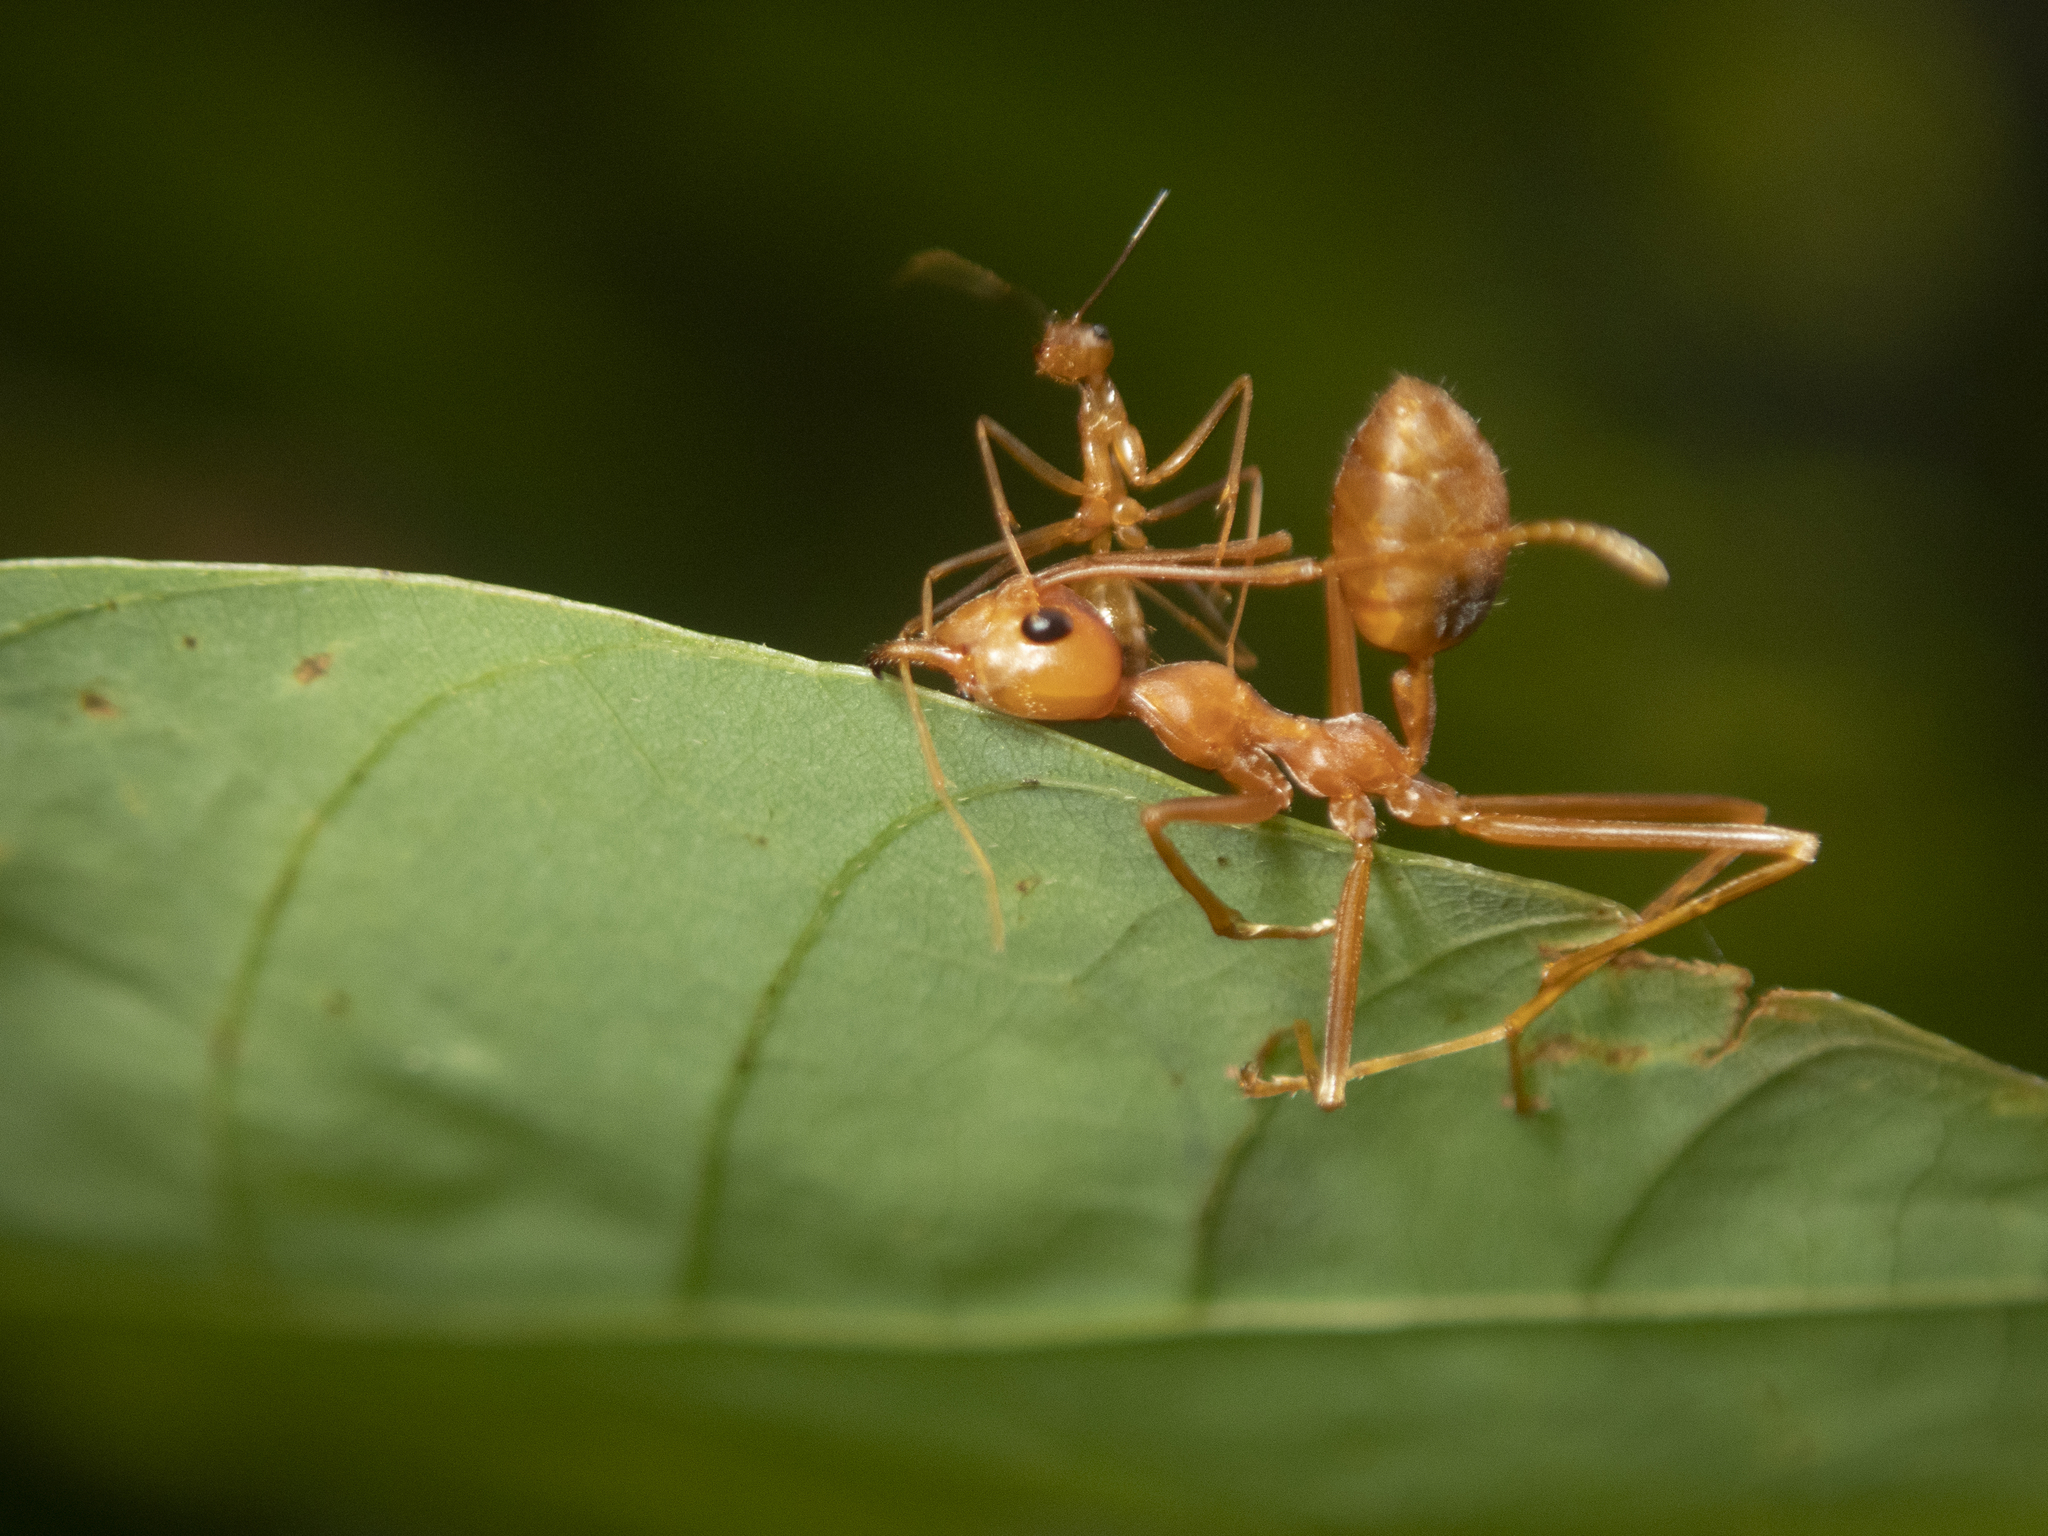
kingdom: Animalia
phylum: Arthropoda
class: Insecta
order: Hymenoptera
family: Formicidae
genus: Oecophylla
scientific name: Oecophylla smaragdina
